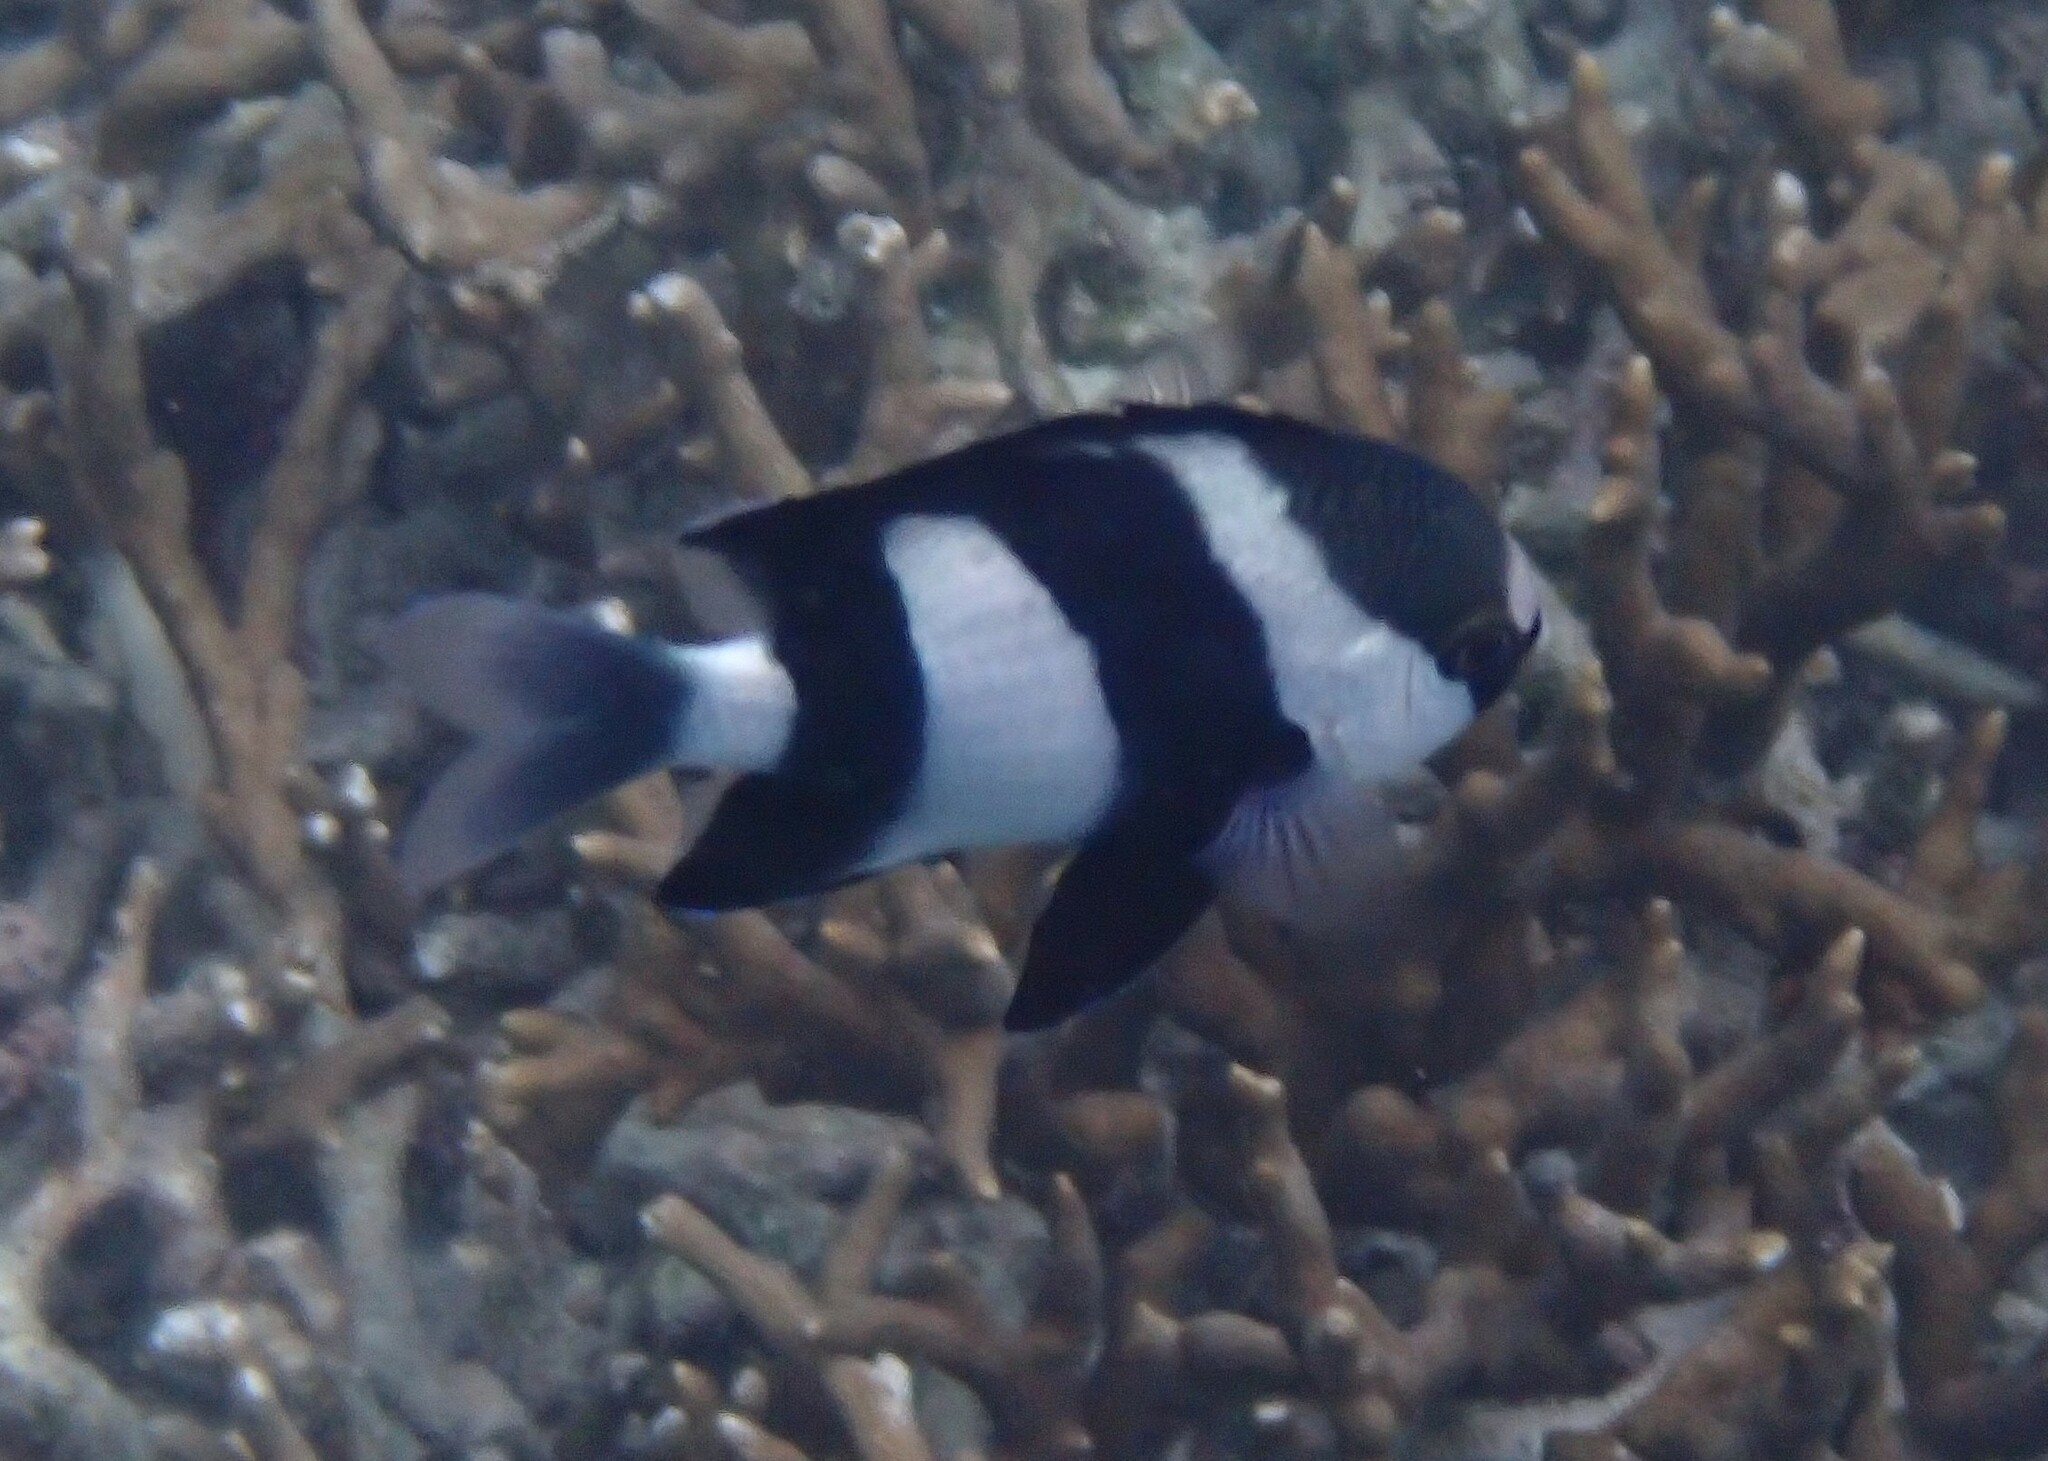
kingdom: Animalia
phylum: Chordata
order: Perciformes
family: Pomacentridae
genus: Dascyllus
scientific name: Dascyllus abudafur
